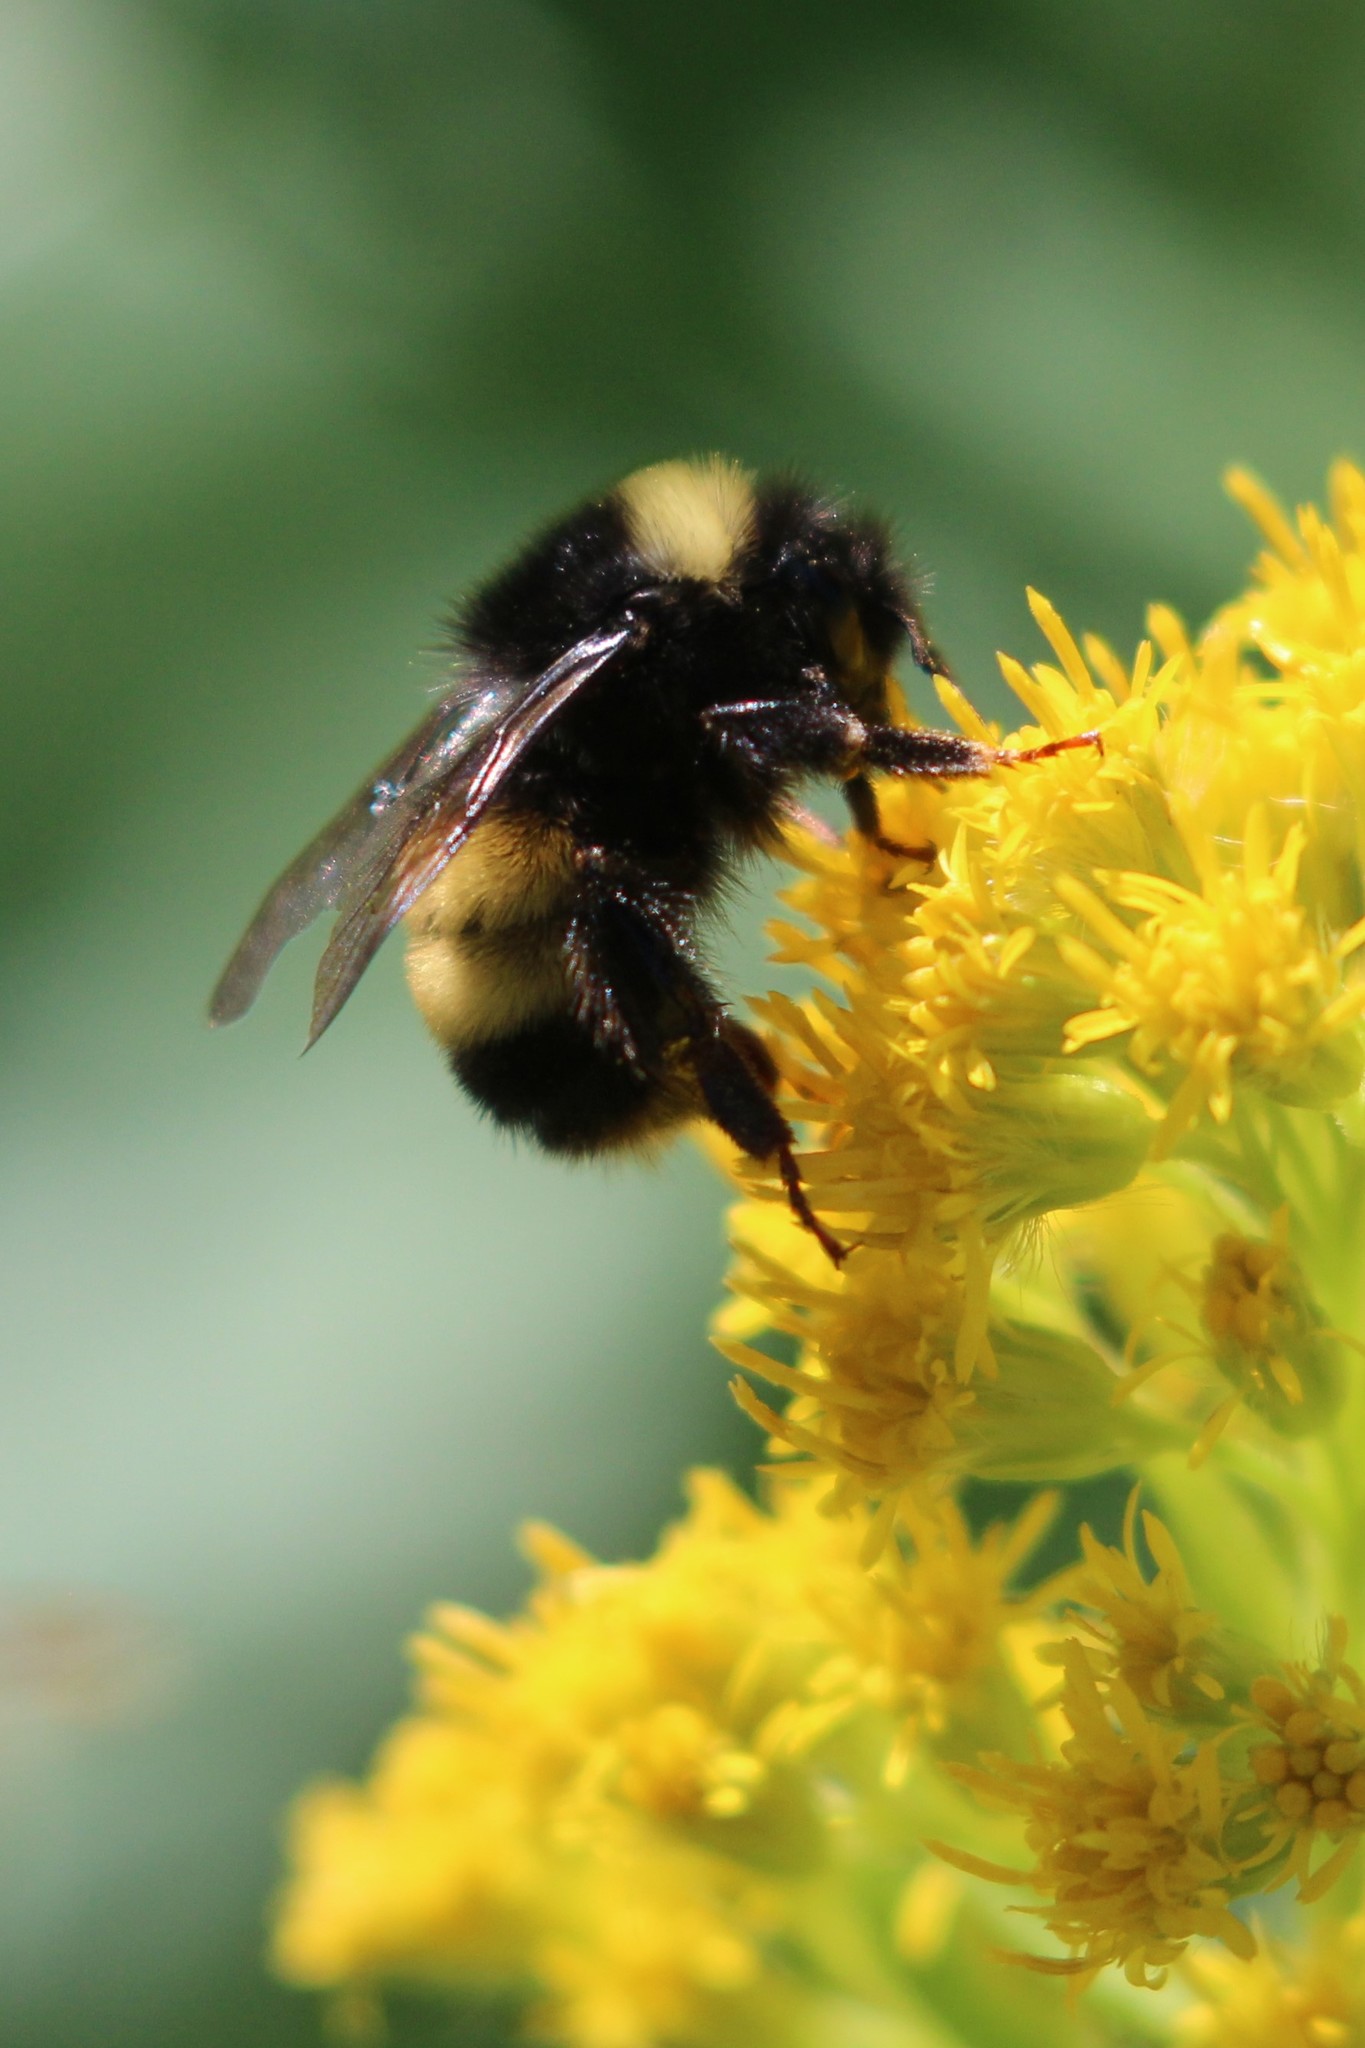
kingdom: Animalia
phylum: Arthropoda
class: Insecta
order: Hymenoptera
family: Apidae
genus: Bombus
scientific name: Bombus terricola
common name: Yellow-banded bumble bee
